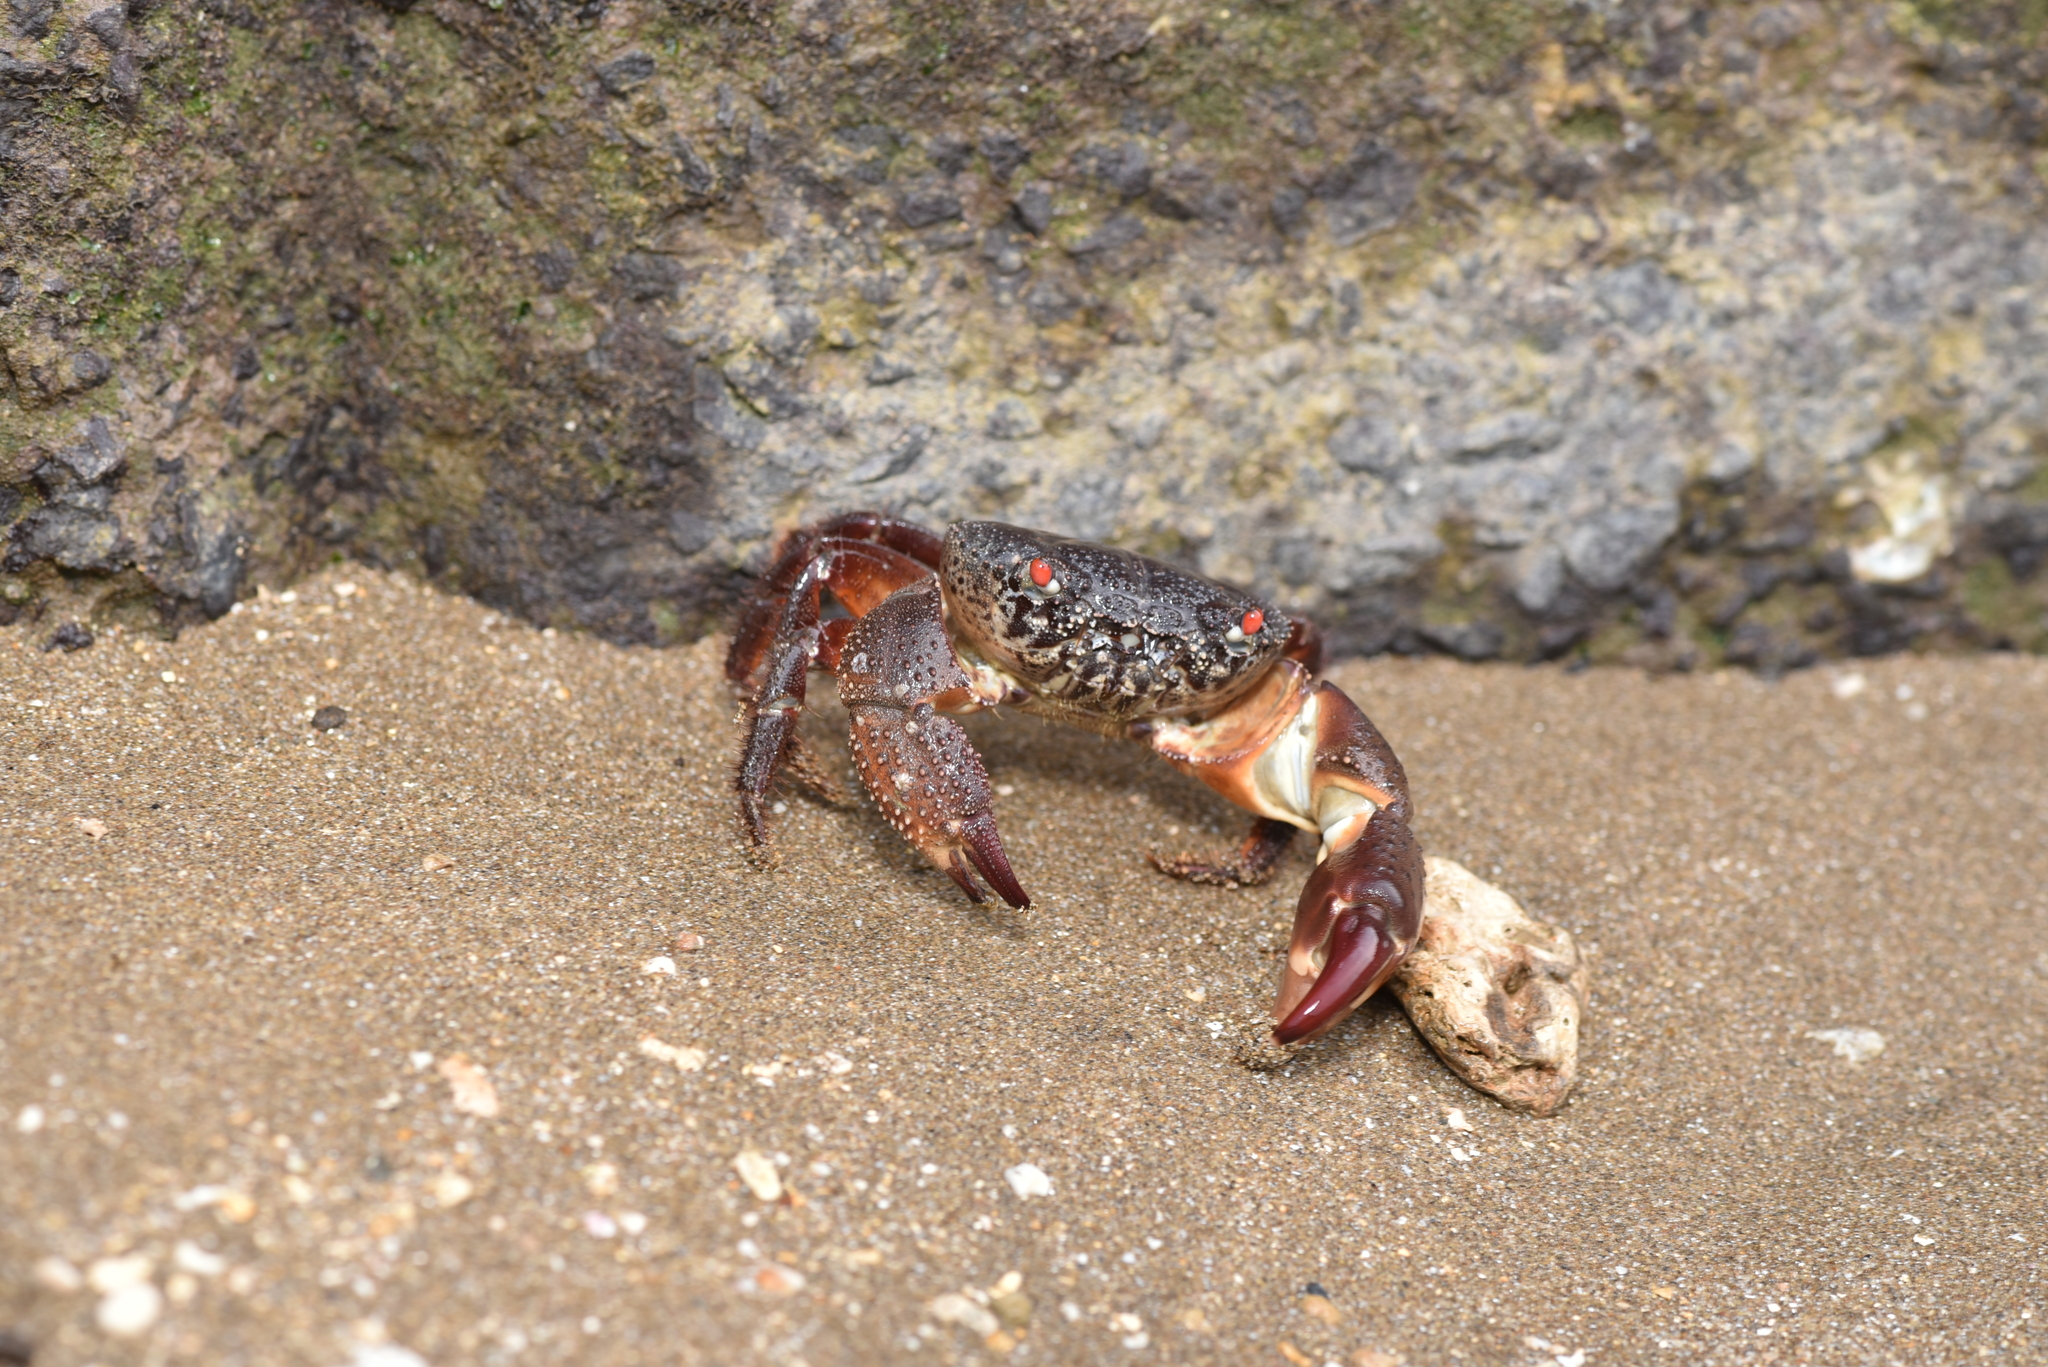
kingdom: Animalia
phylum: Arthropoda
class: Malacostraca
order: Decapoda
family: Eriphiidae
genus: Eriphia
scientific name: Eriphia ferox
